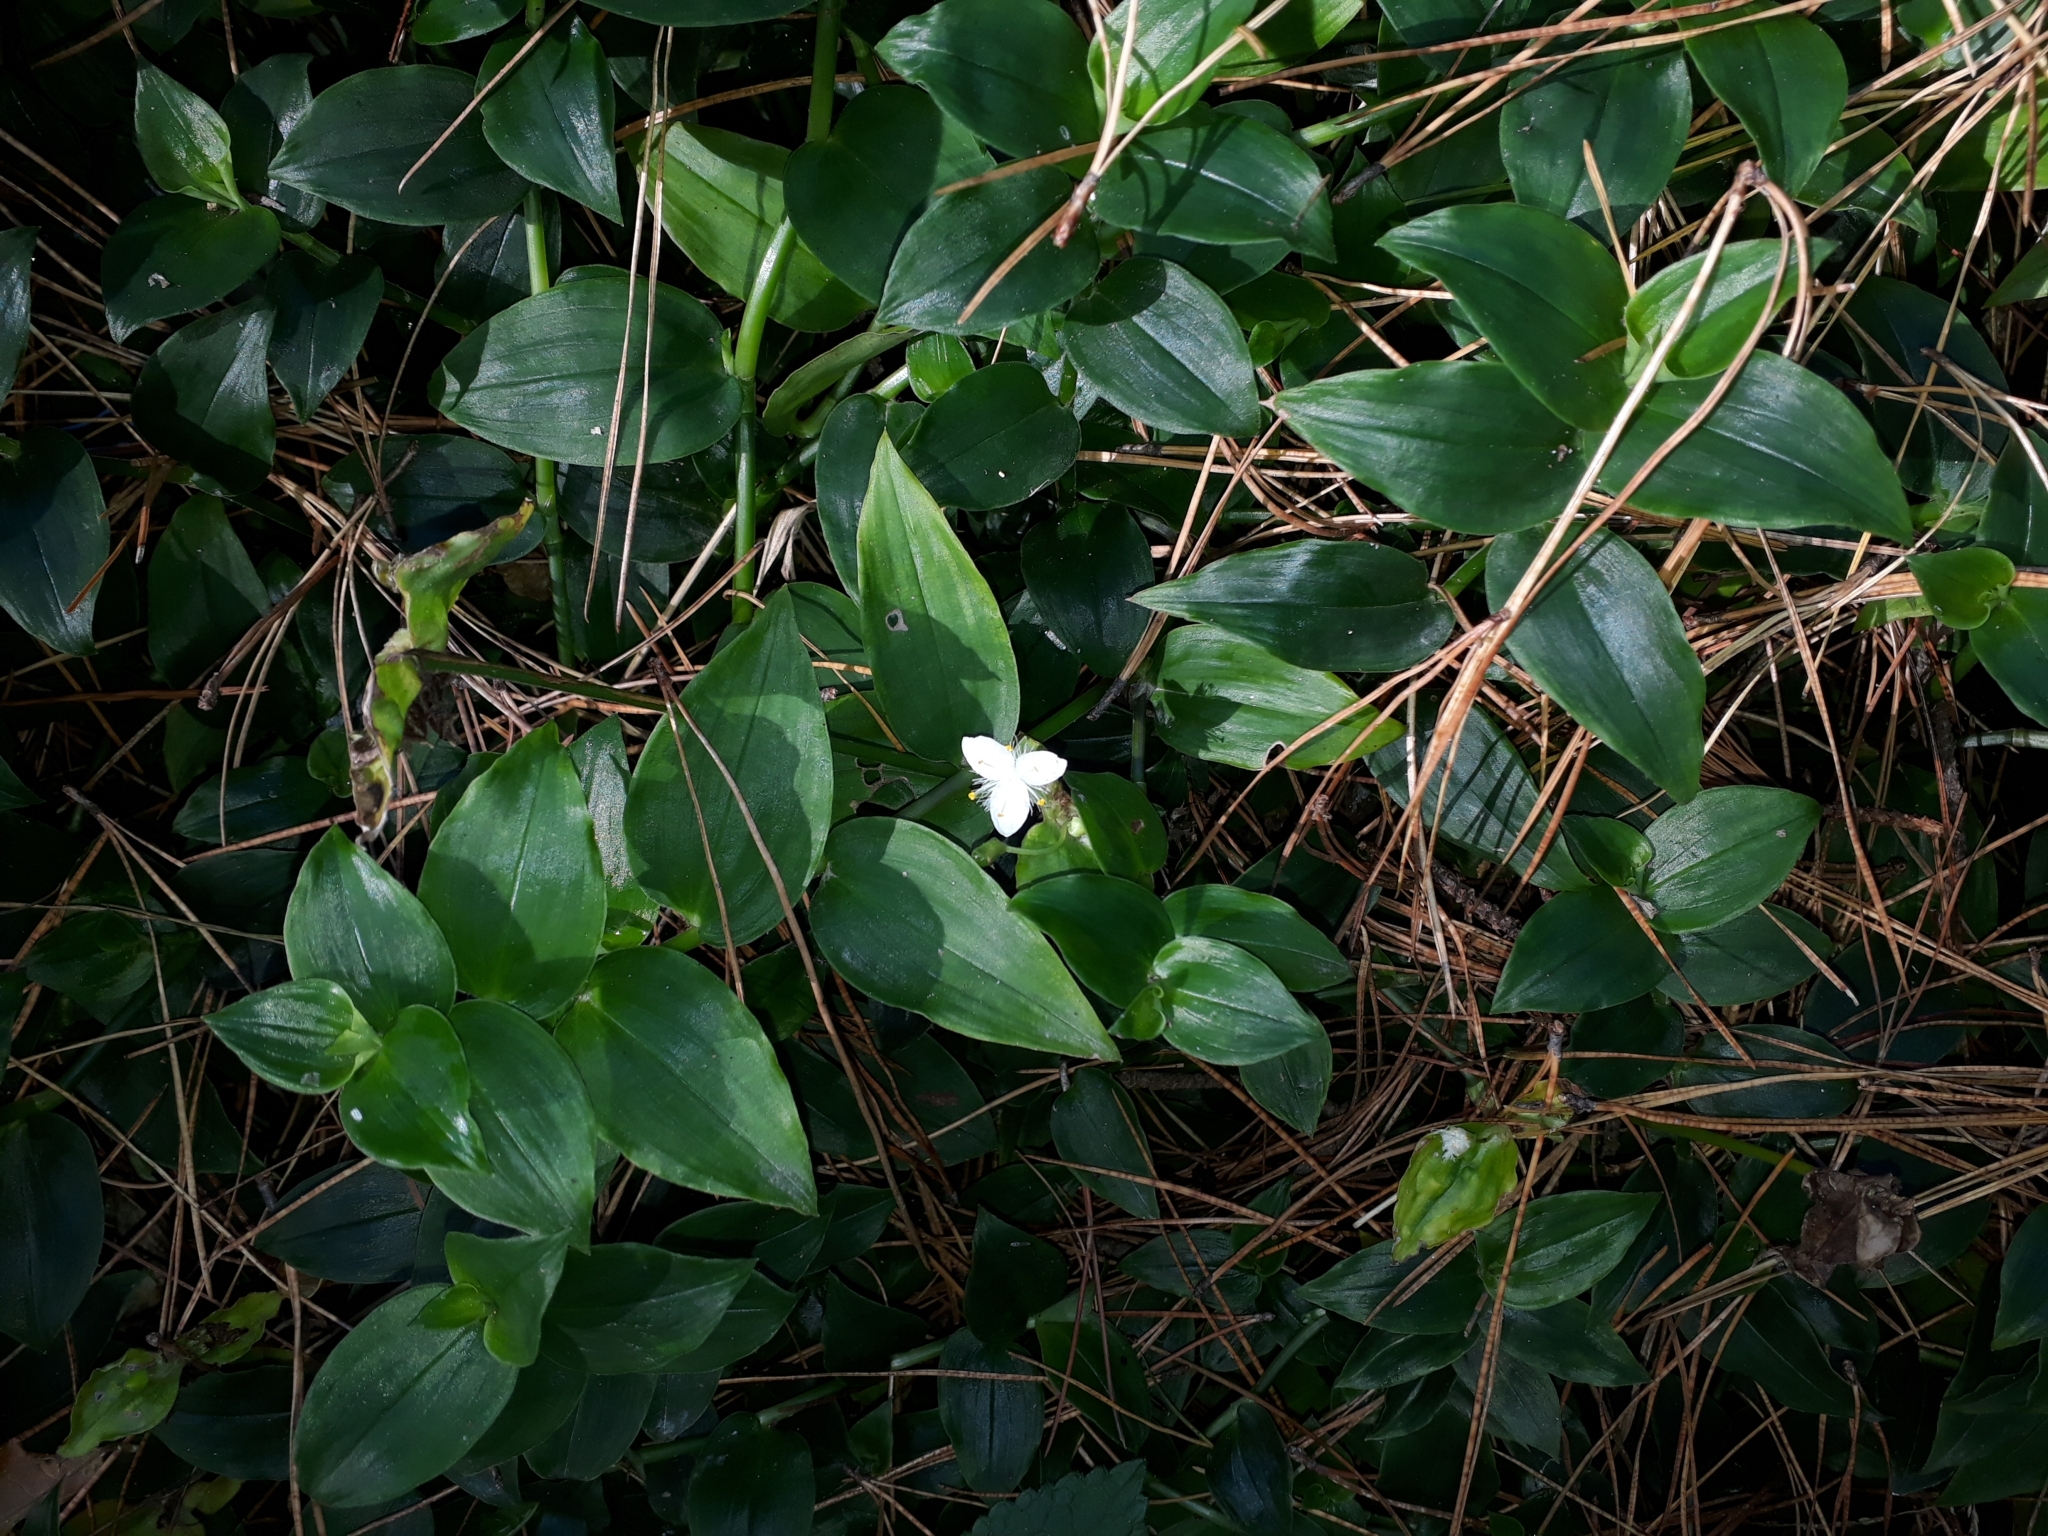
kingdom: Plantae
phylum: Tracheophyta
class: Liliopsida
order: Commelinales
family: Commelinaceae
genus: Tradescantia
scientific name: Tradescantia fluminensis
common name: Wandering-jew
